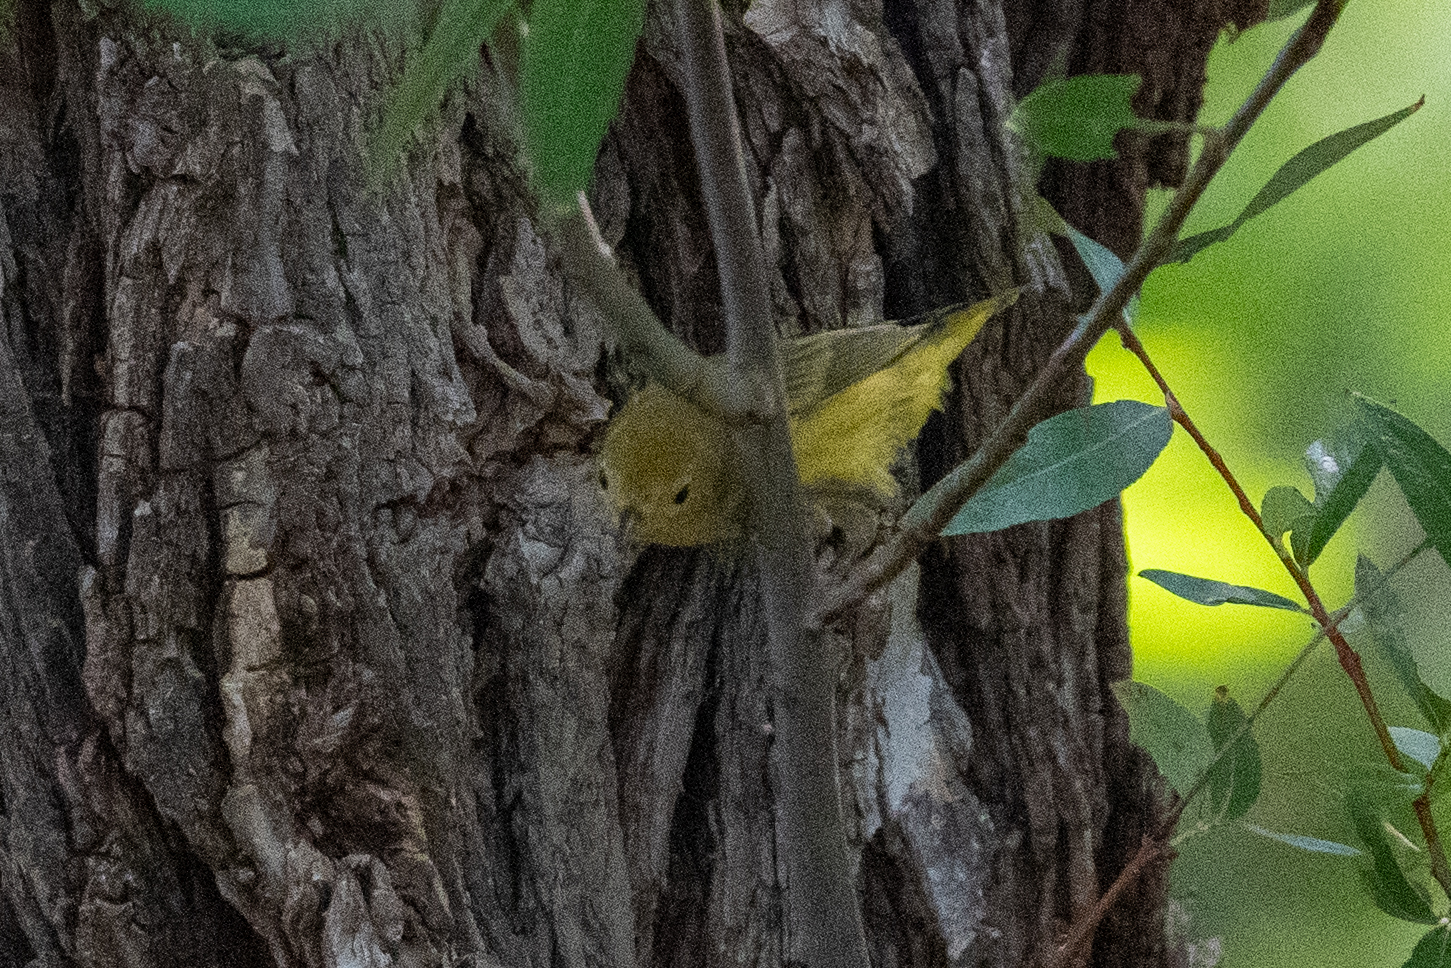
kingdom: Animalia
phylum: Chordata
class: Aves
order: Passeriformes
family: Parulidae
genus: Setophaga
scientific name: Setophaga petechia
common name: Yellow warbler
